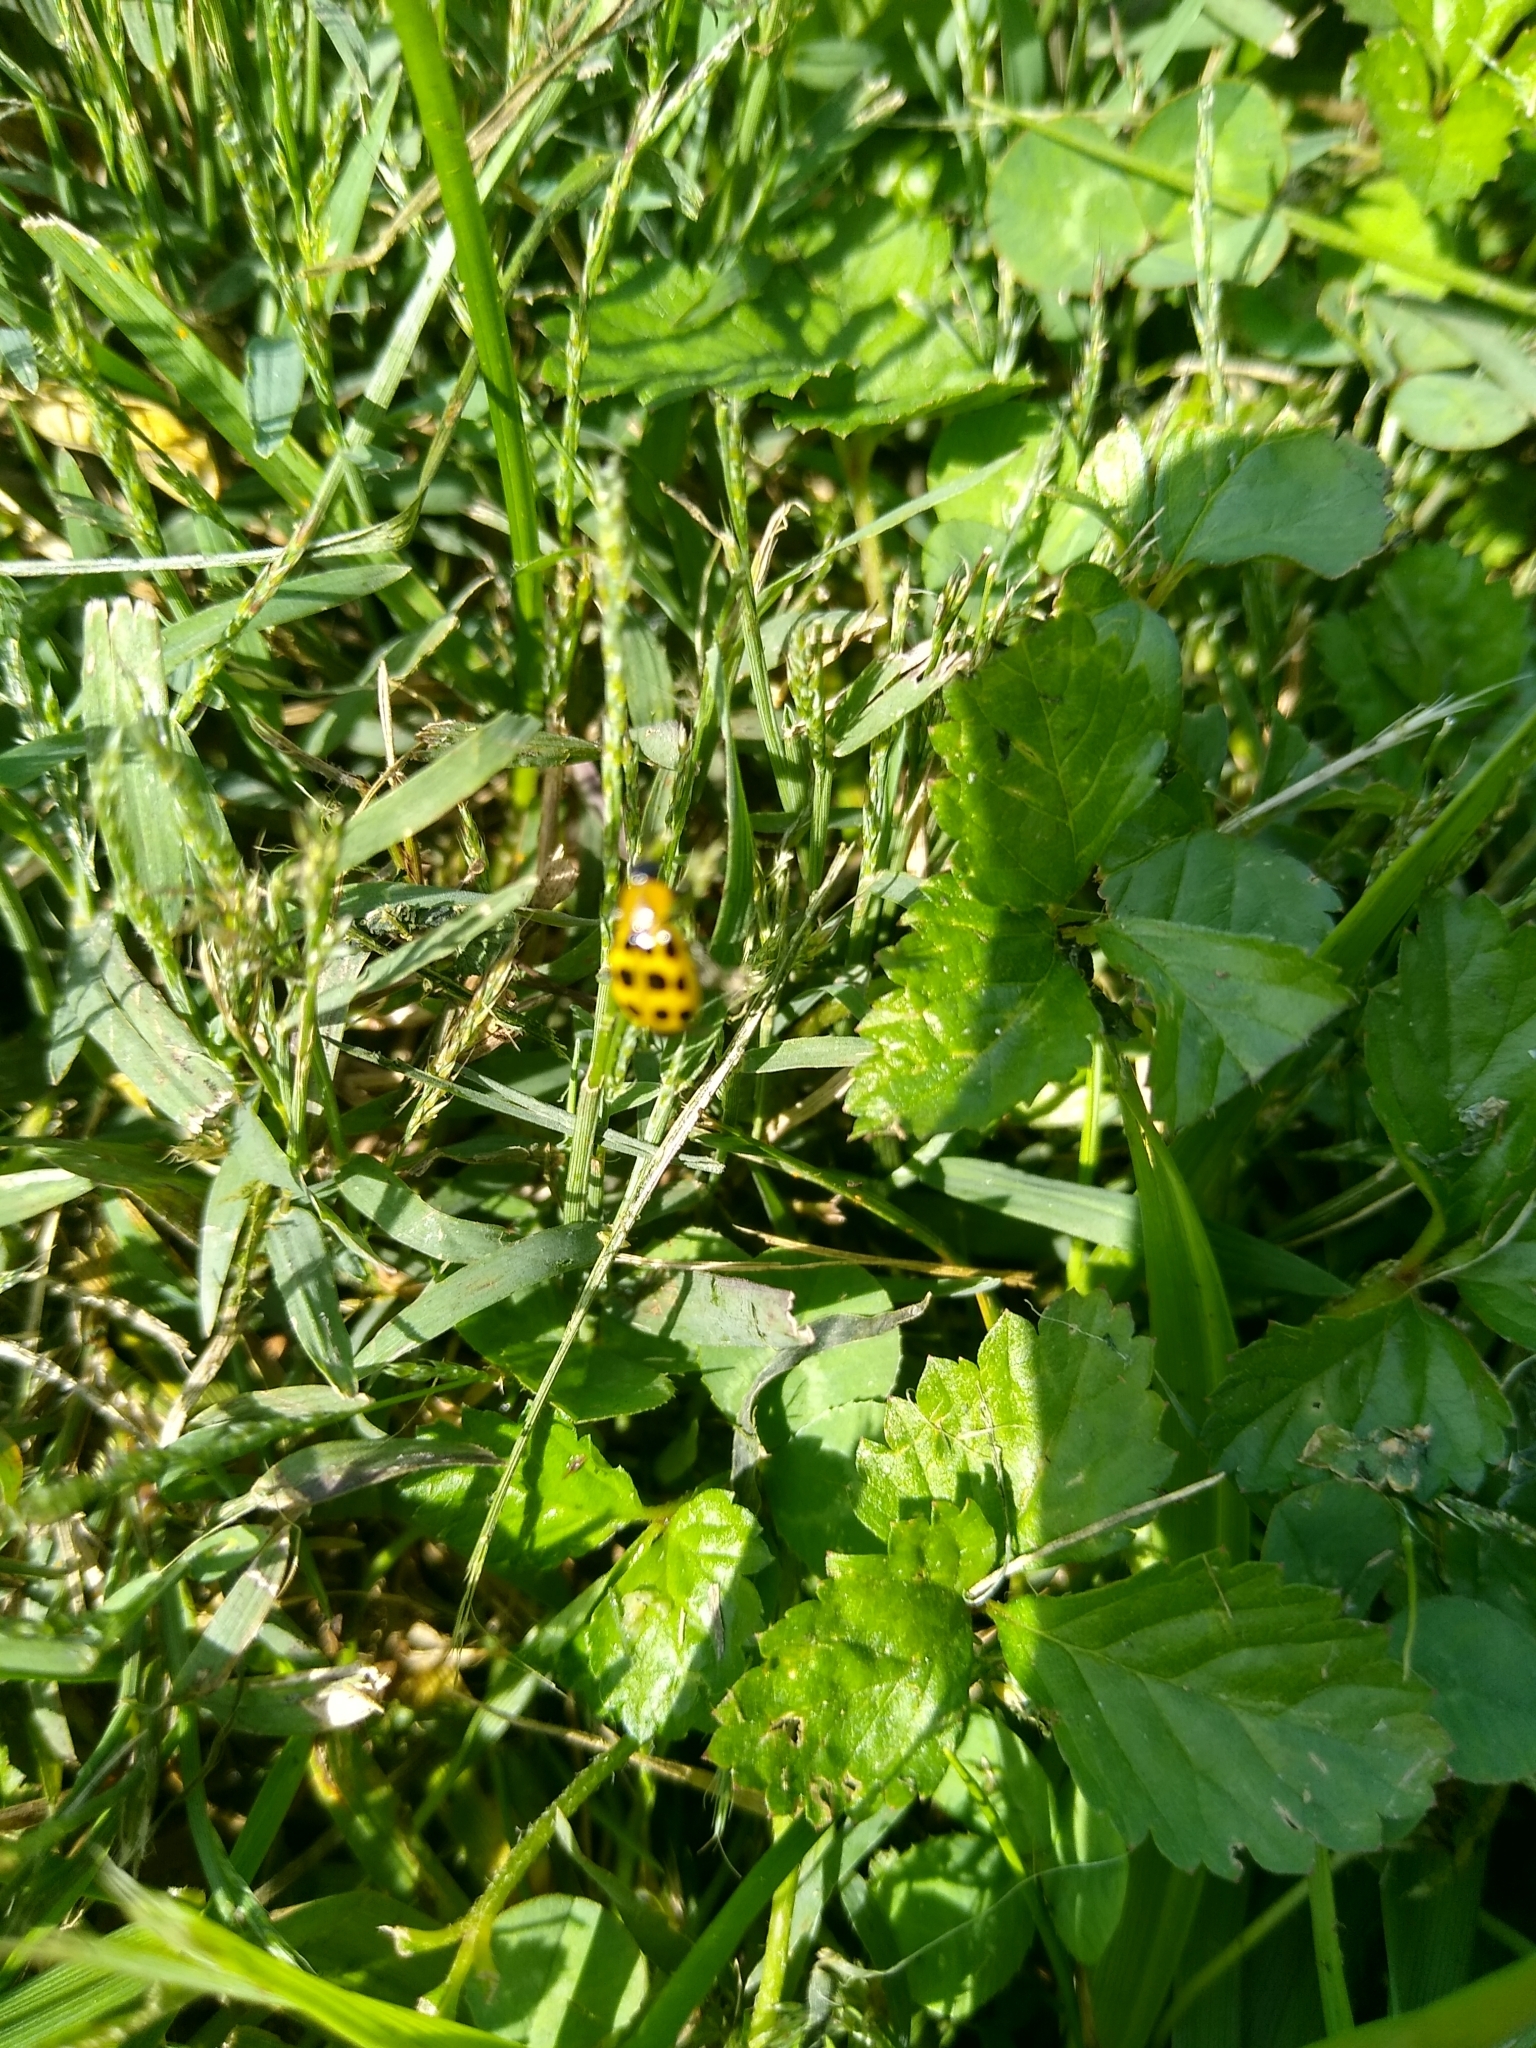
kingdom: Animalia
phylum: Arthropoda
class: Insecta
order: Coleoptera
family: Chrysomelidae
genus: Diabrotica
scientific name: Diabrotica undecimpunctata
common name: Spotted cucumber beetle
